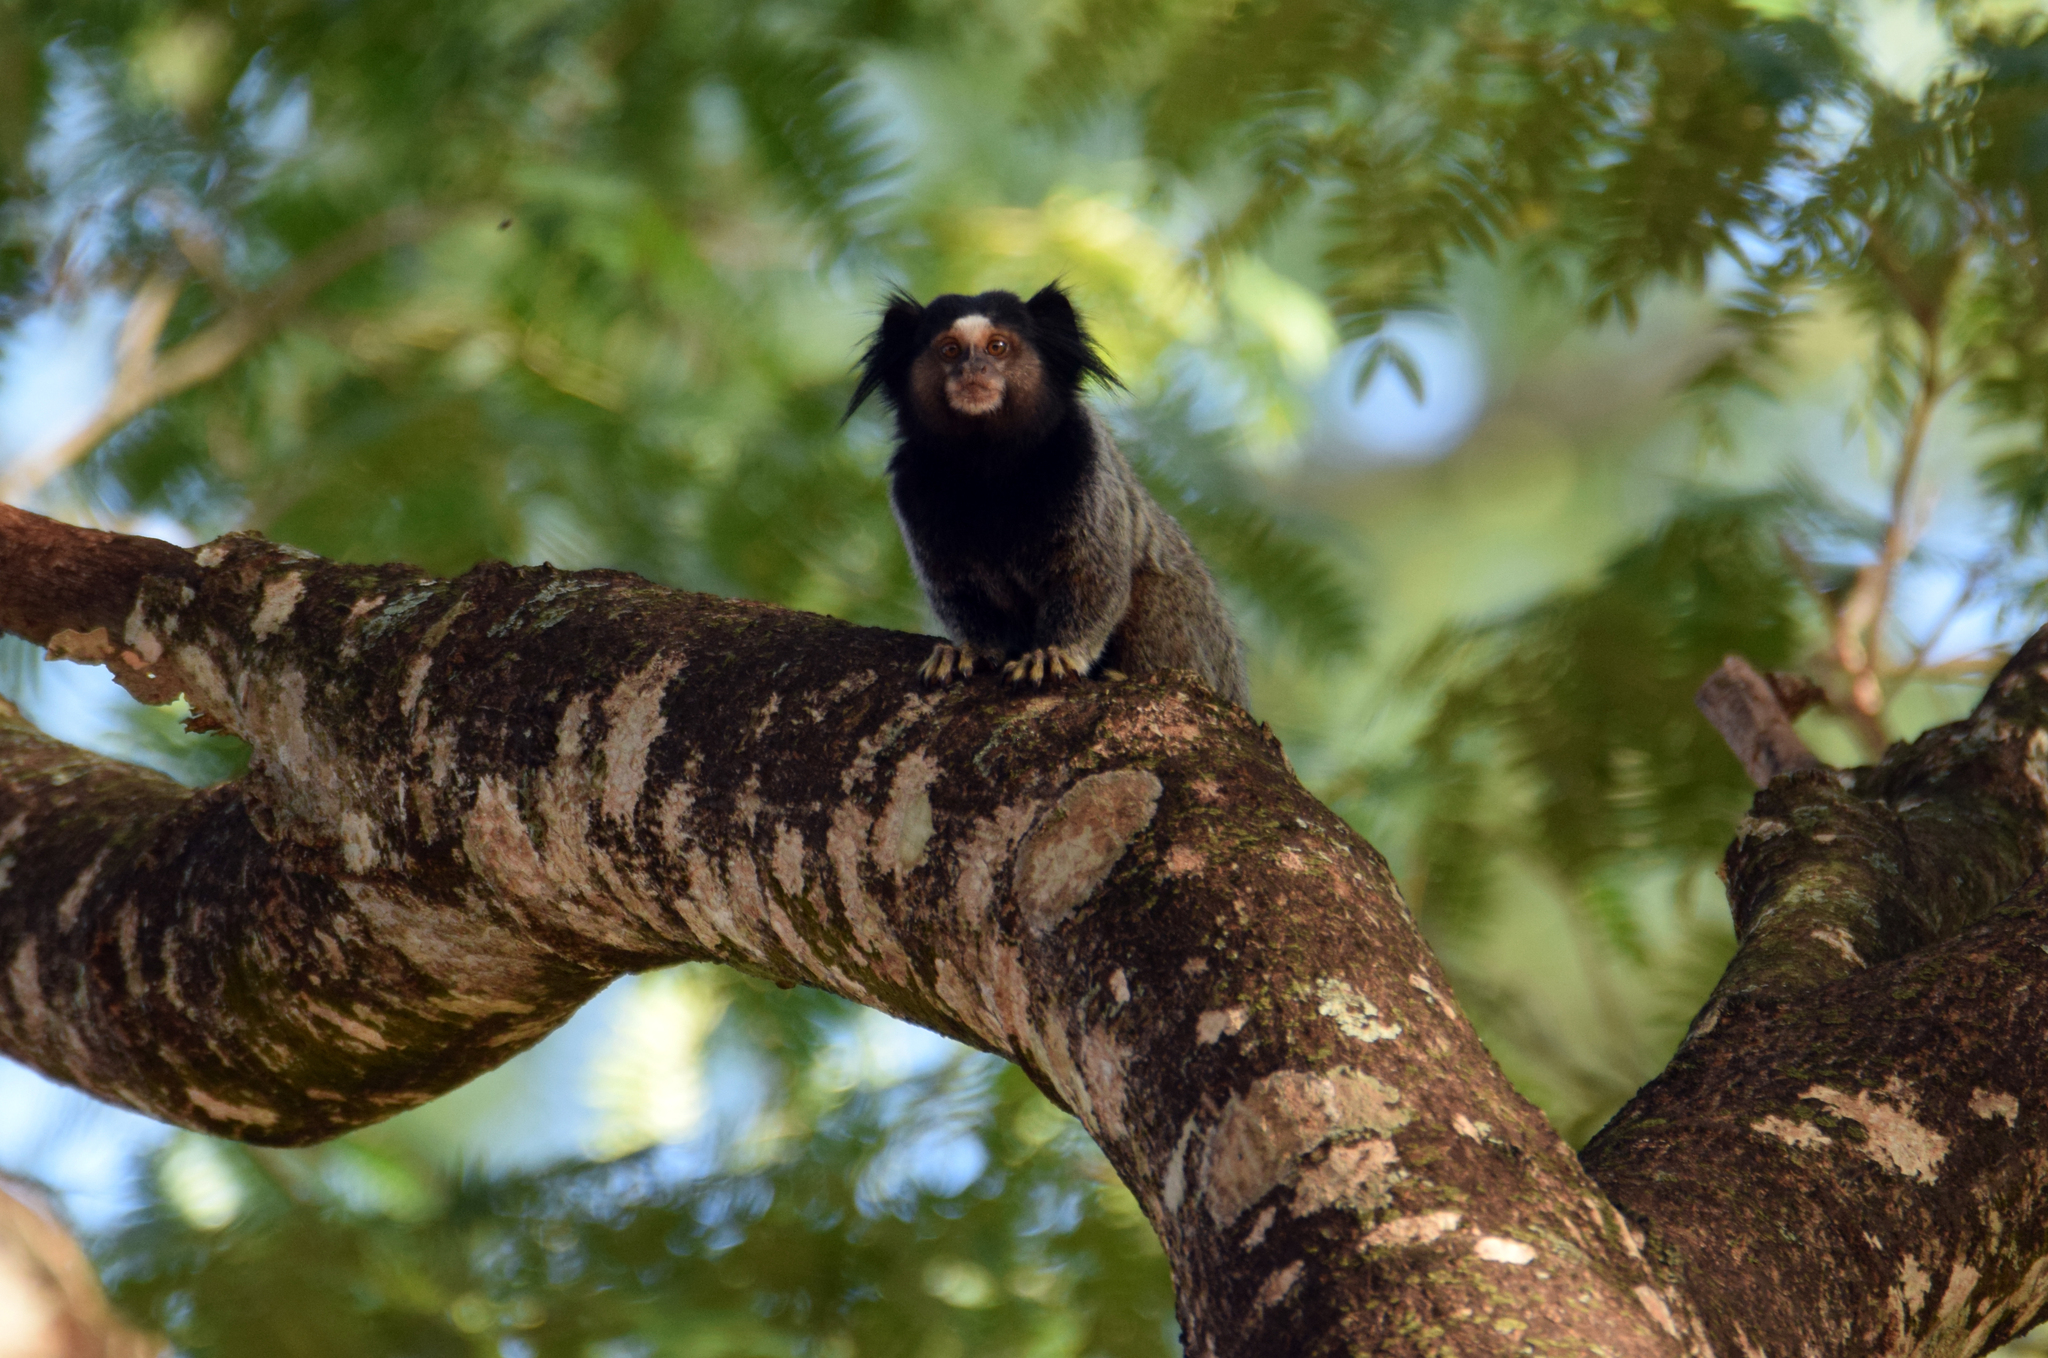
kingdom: Animalia
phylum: Chordata
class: Mammalia
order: Primates
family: Callitrichidae
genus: Callithrix
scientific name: Callithrix penicillata
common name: Black-tufted marmoset
